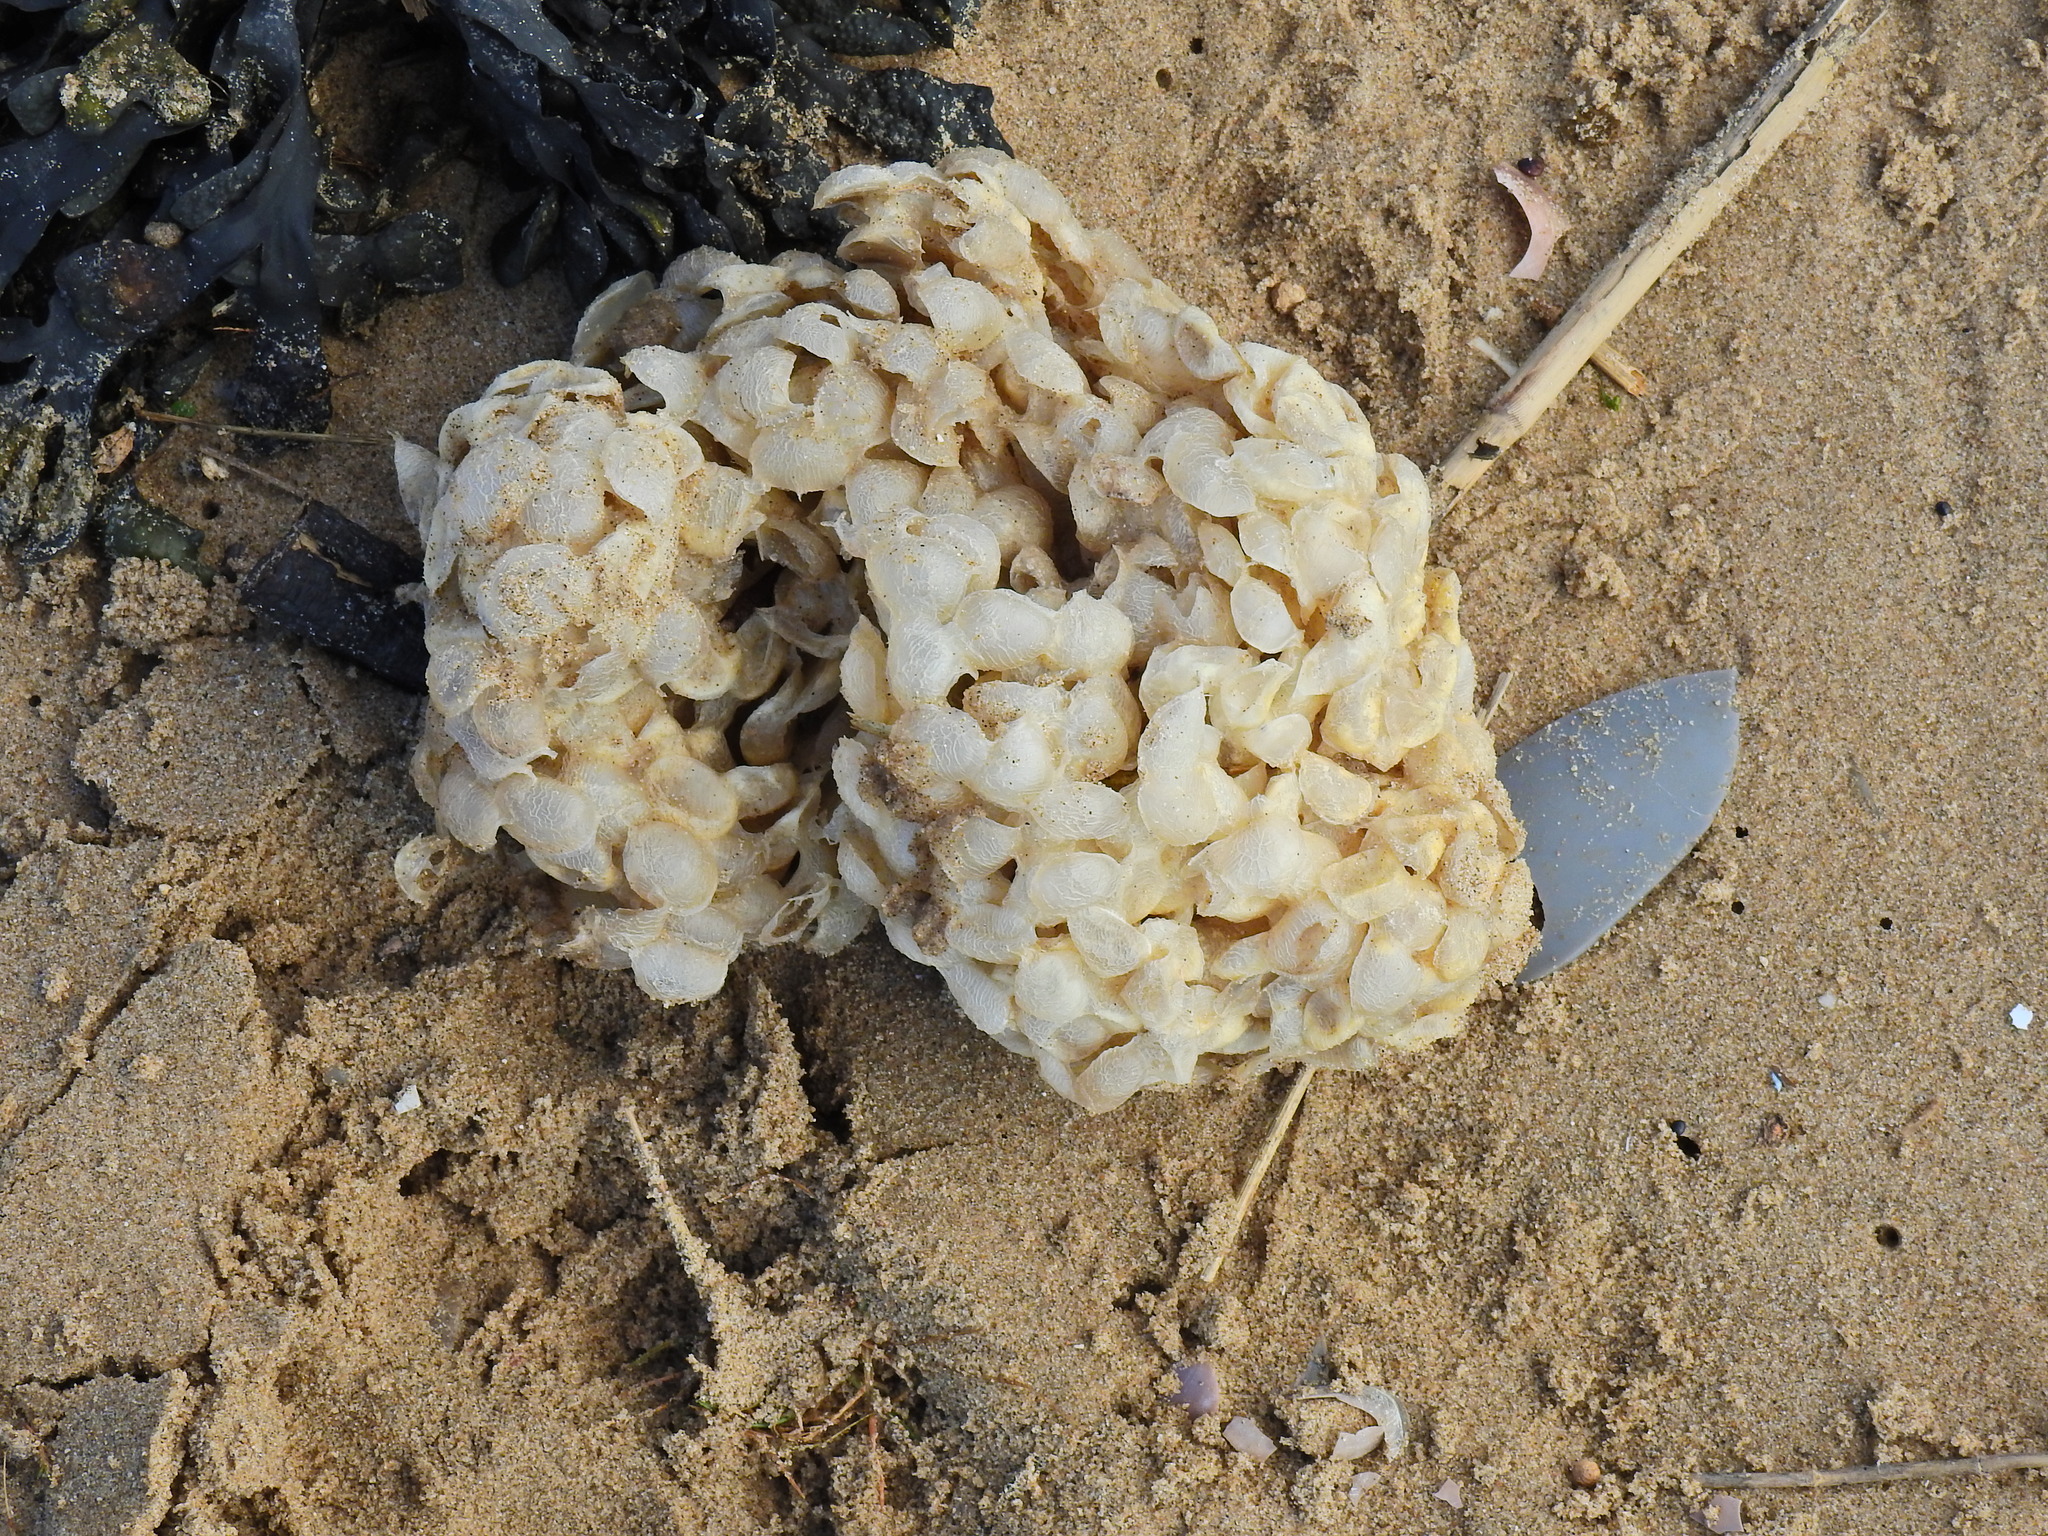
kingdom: Animalia
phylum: Mollusca
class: Gastropoda
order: Neogastropoda
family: Buccinidae
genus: Buccinum
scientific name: Buccinum undatum
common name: Common whelk
